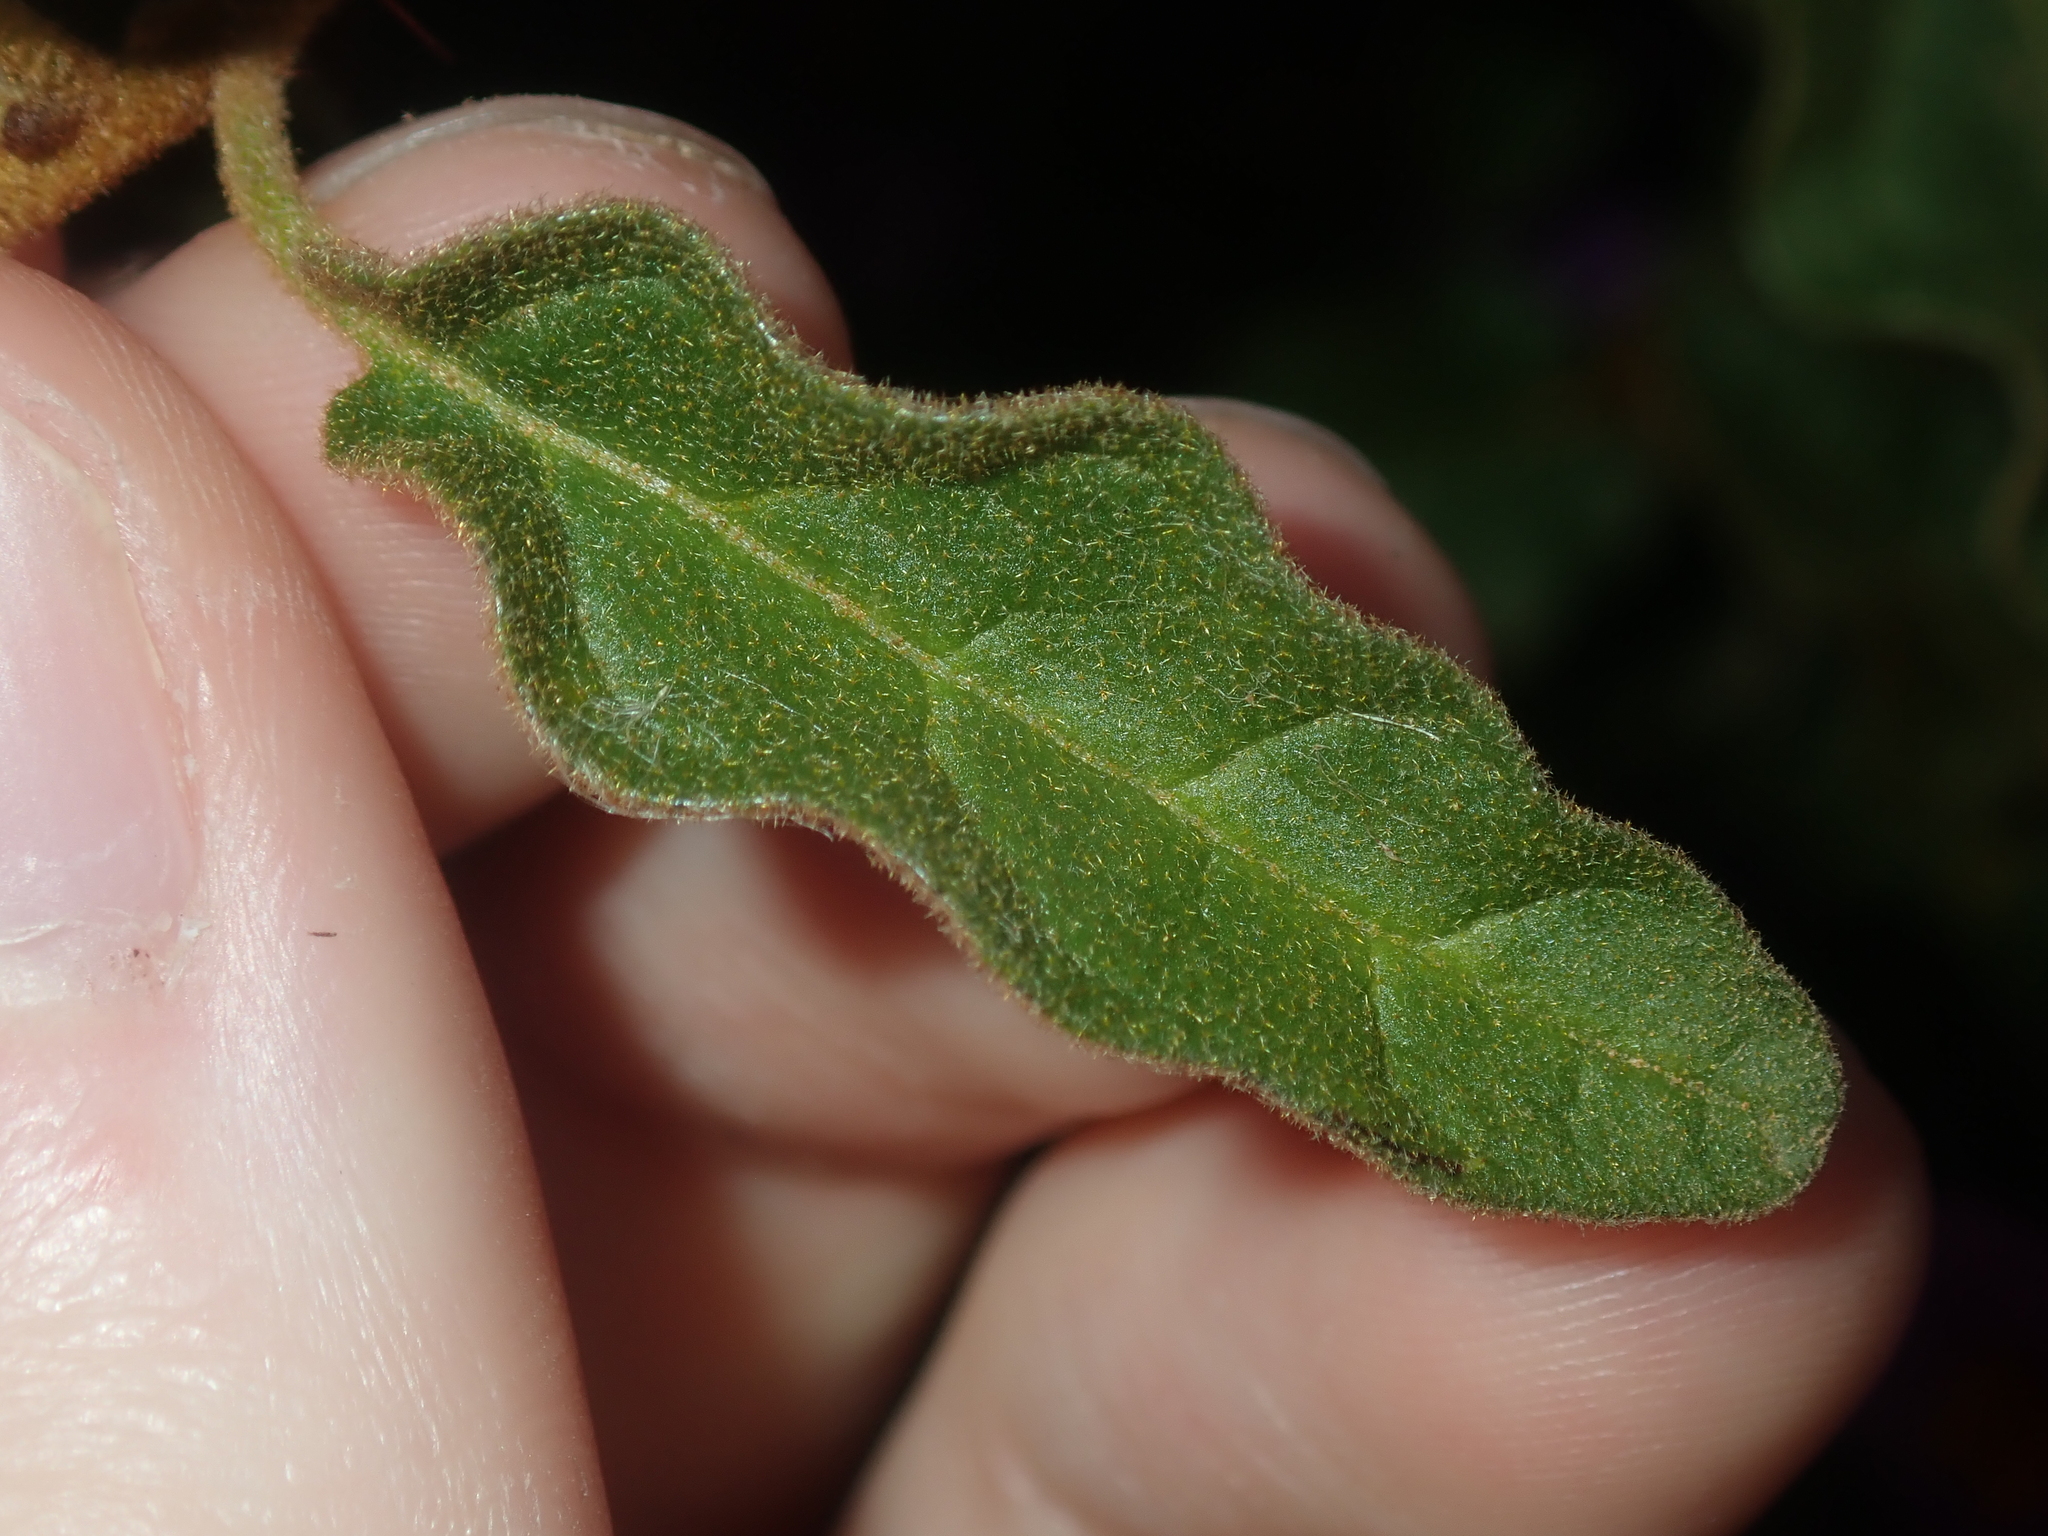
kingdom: Plantae
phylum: Tracheophyta
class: Magnoliopsida
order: Solanales
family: Solanaceae
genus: Solanum
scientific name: Solanum oldfieldii
